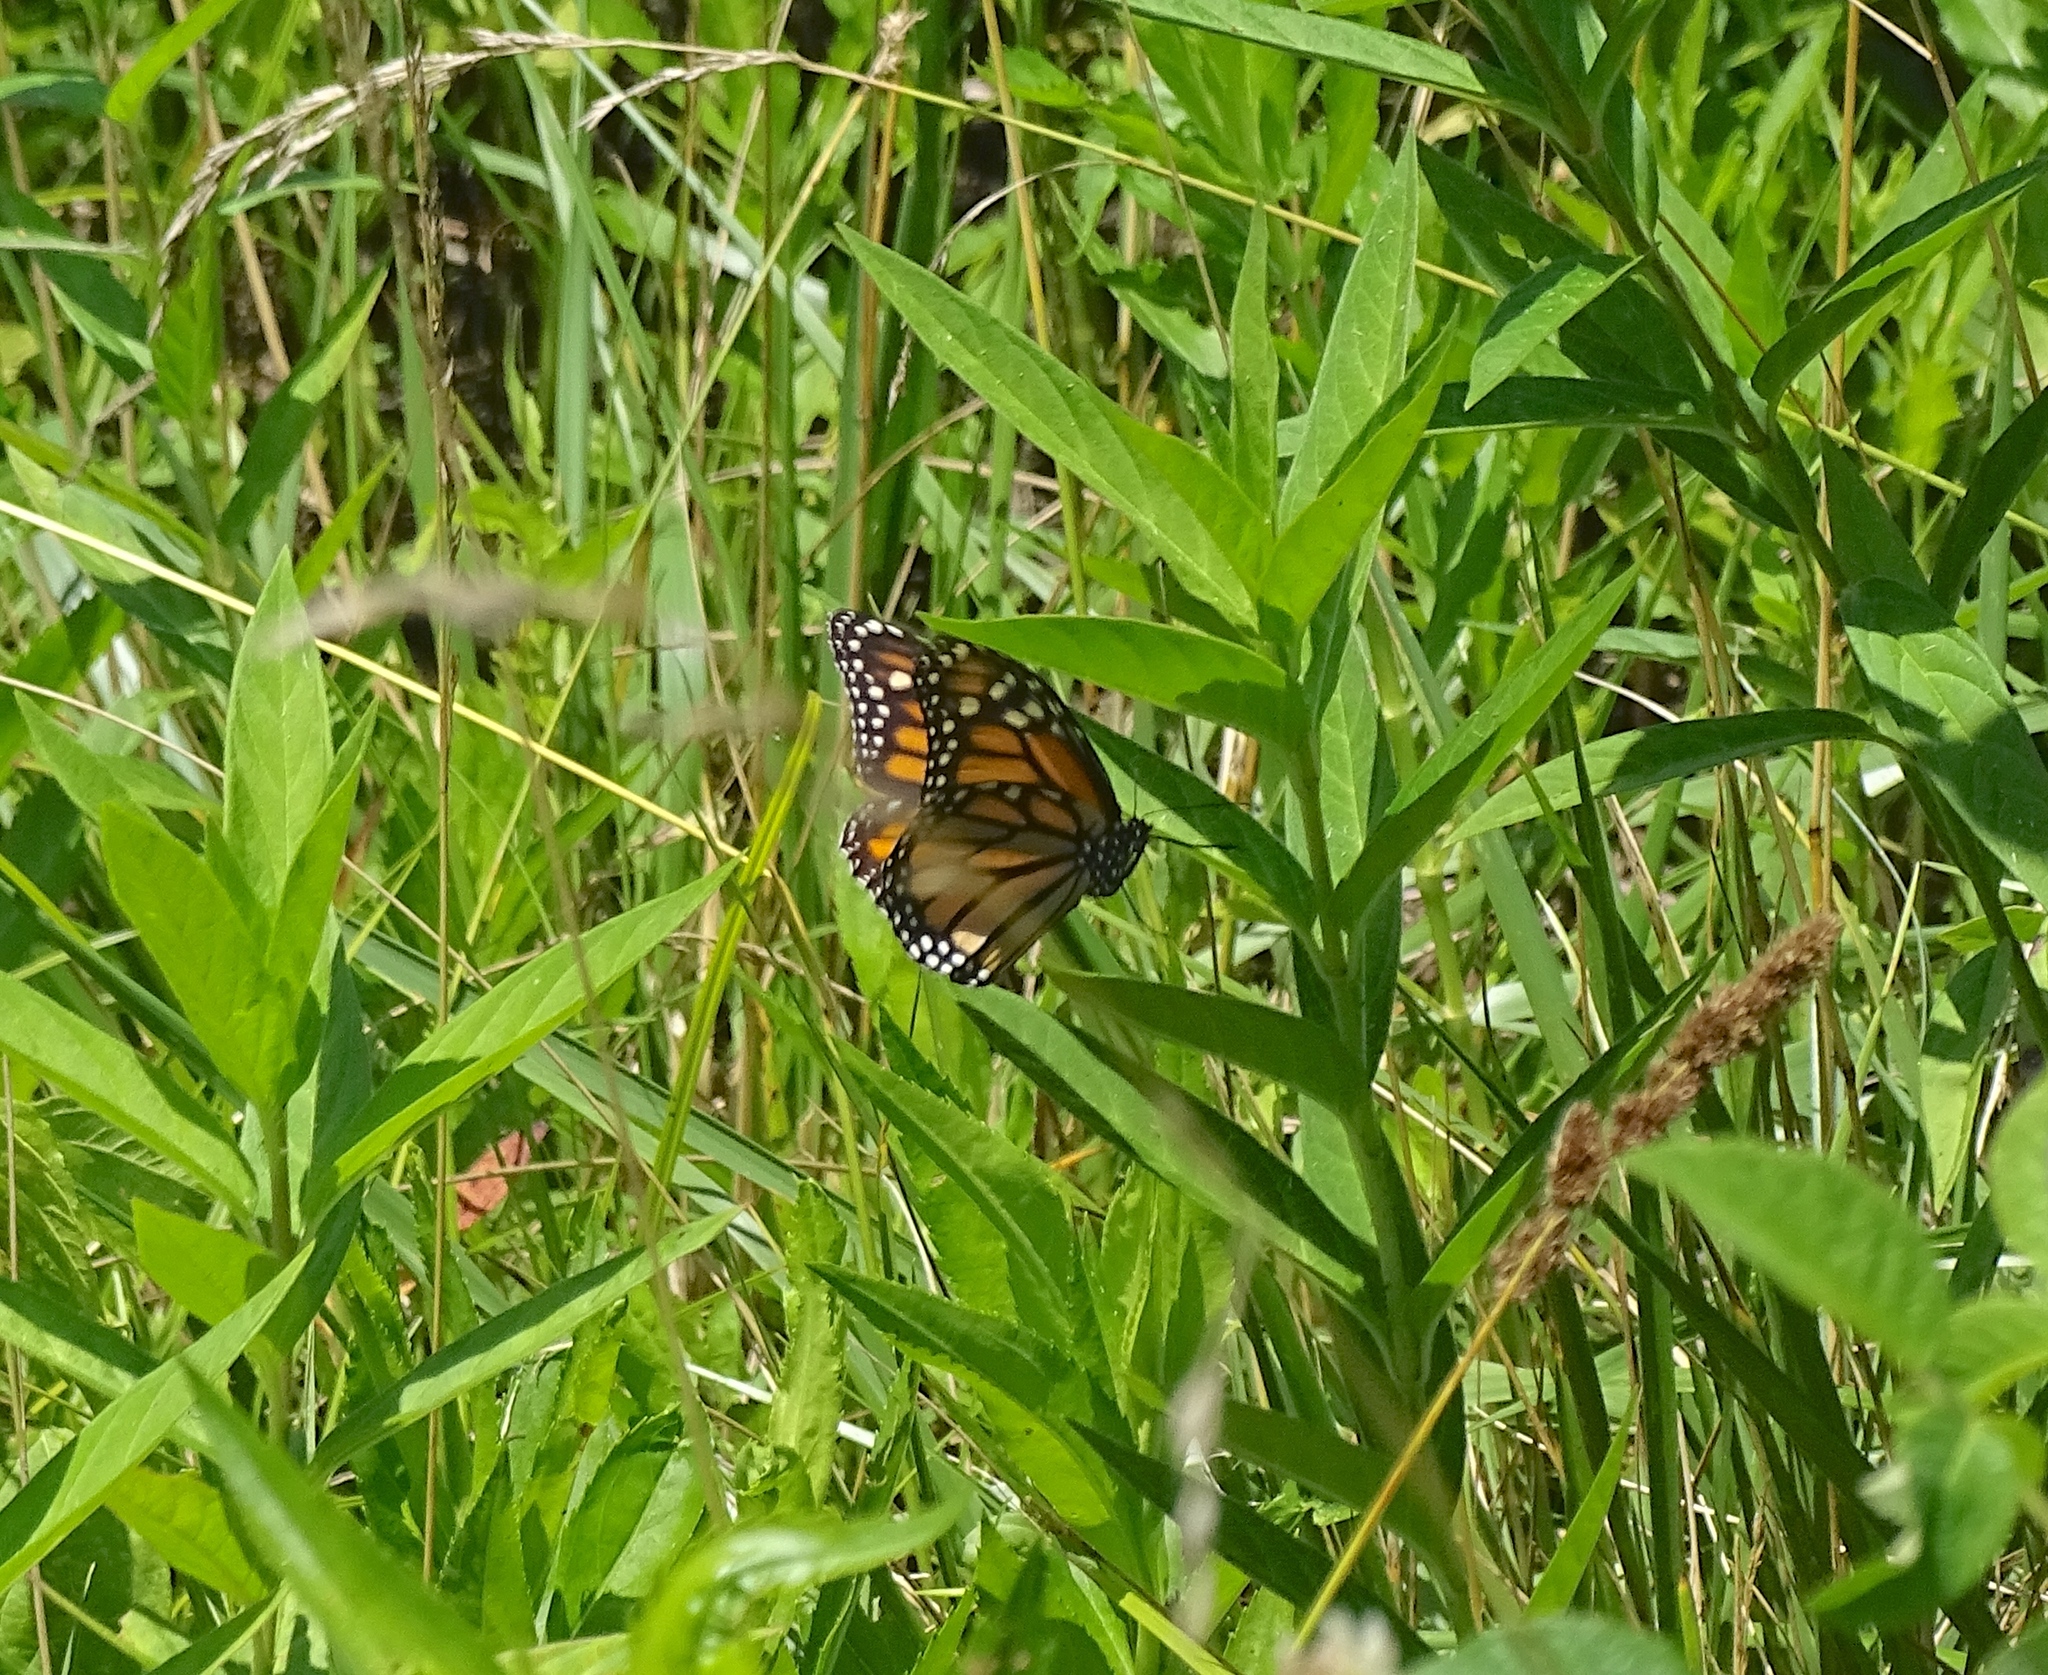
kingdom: Animalia
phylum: Arthropoda
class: Insecta
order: Lepidoptera
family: Nymphalidae
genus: Danaus
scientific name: Danaus plexippus
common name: Monarch
